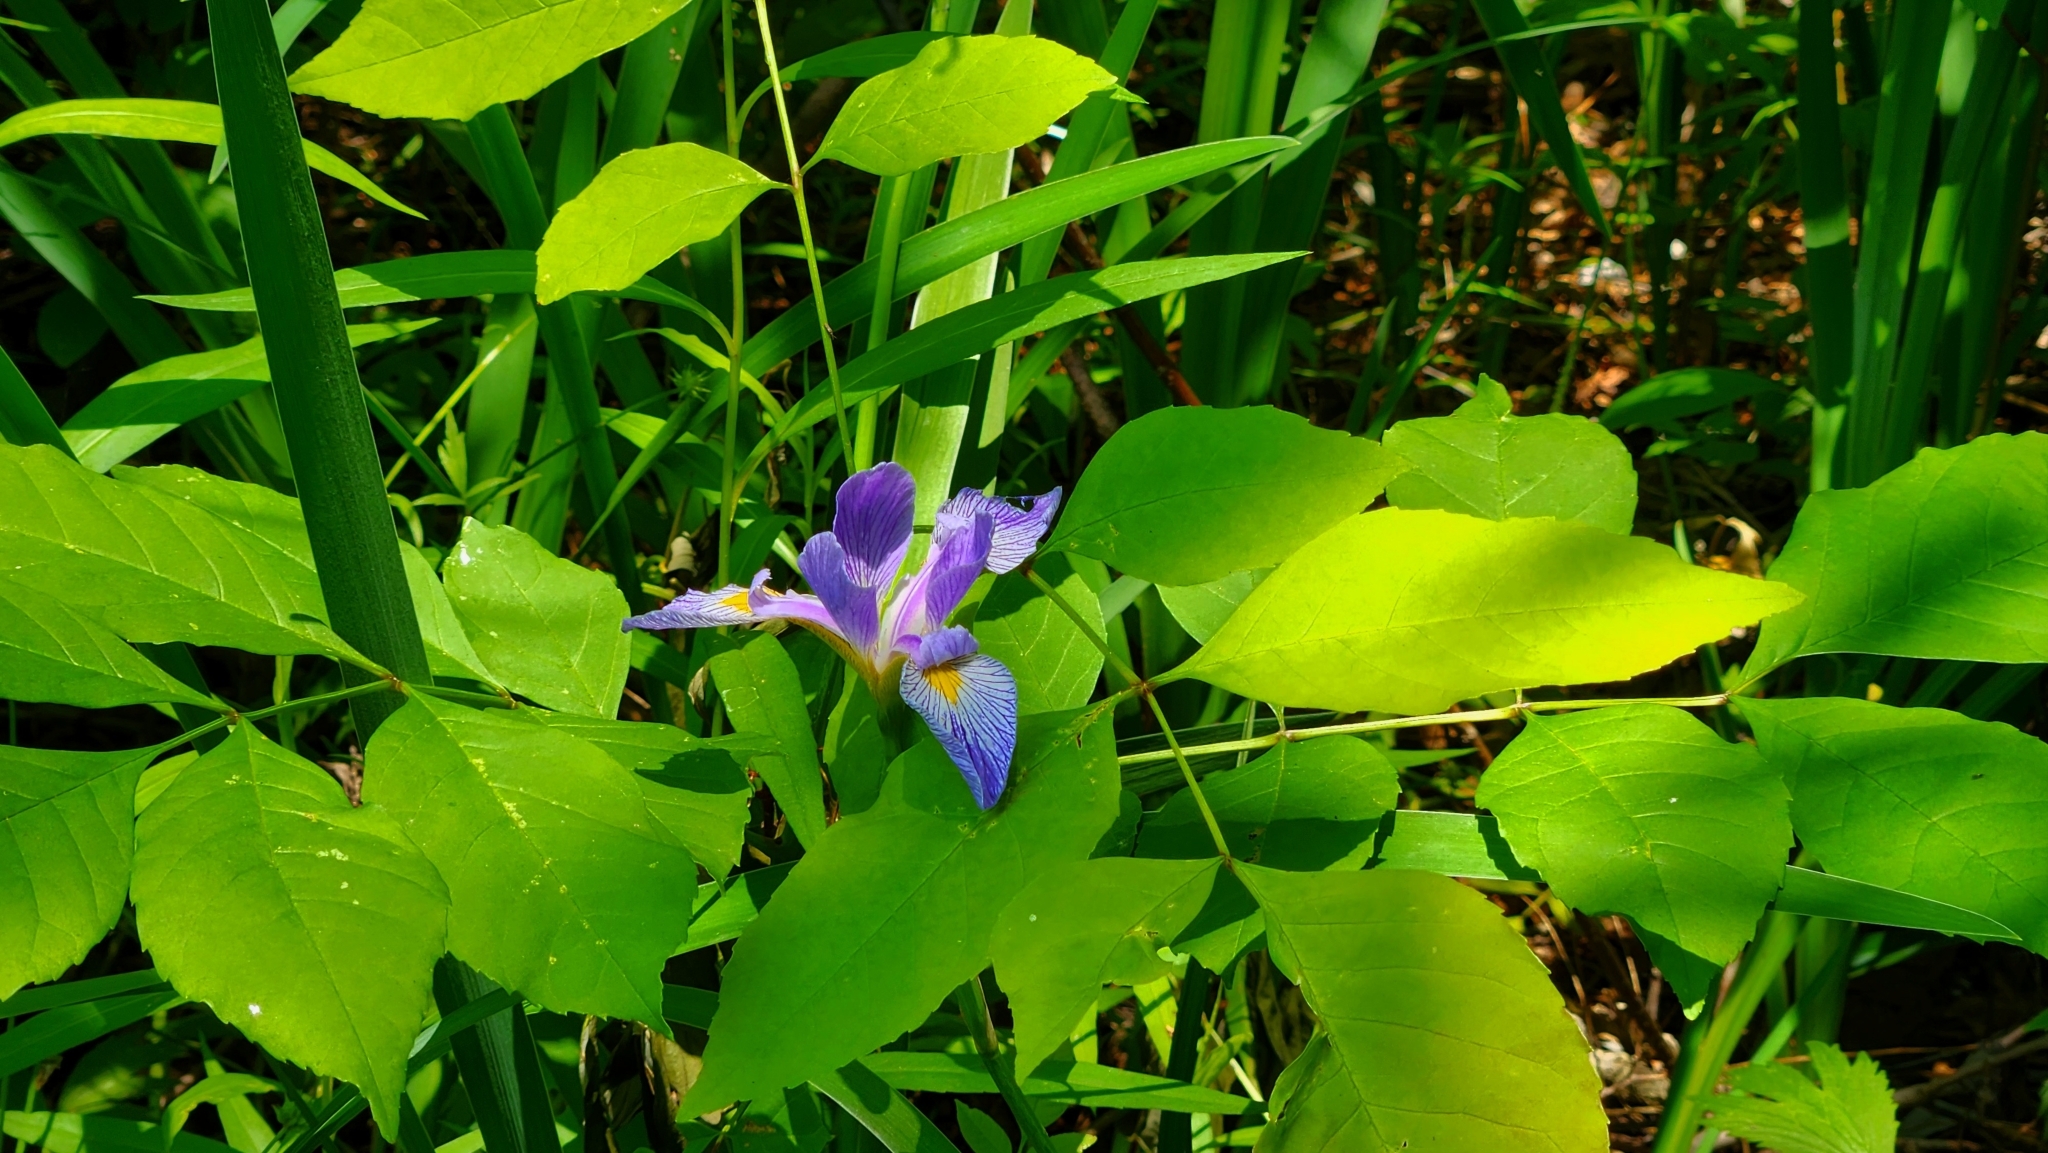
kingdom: Plantae
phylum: Tracheophyta
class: Liliopsida
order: Asparagales
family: Iridaceae
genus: Iris
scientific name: Iris virginica
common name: Southern blue flag
